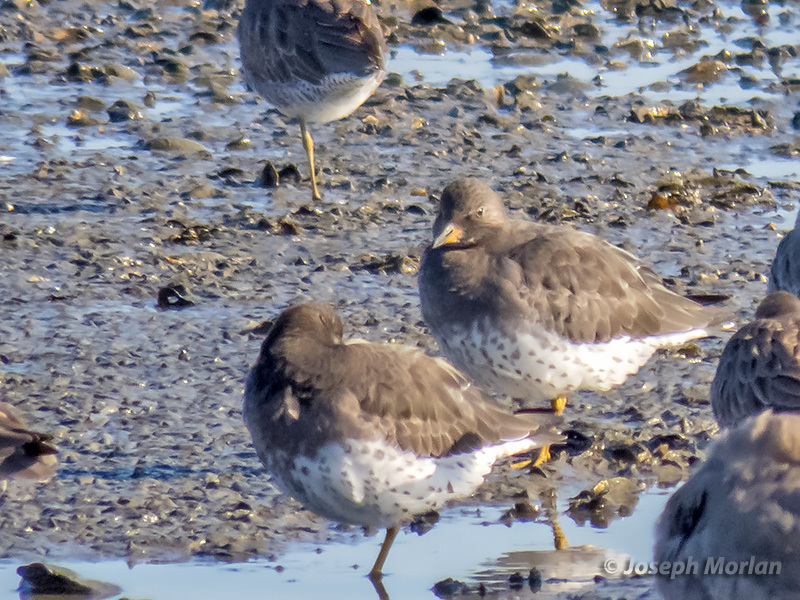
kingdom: Animalia
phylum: Chordata
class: Aves
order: Charadriiformes
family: Scolopacidae
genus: Calidris
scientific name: Calidris virgata
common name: Surfbird
